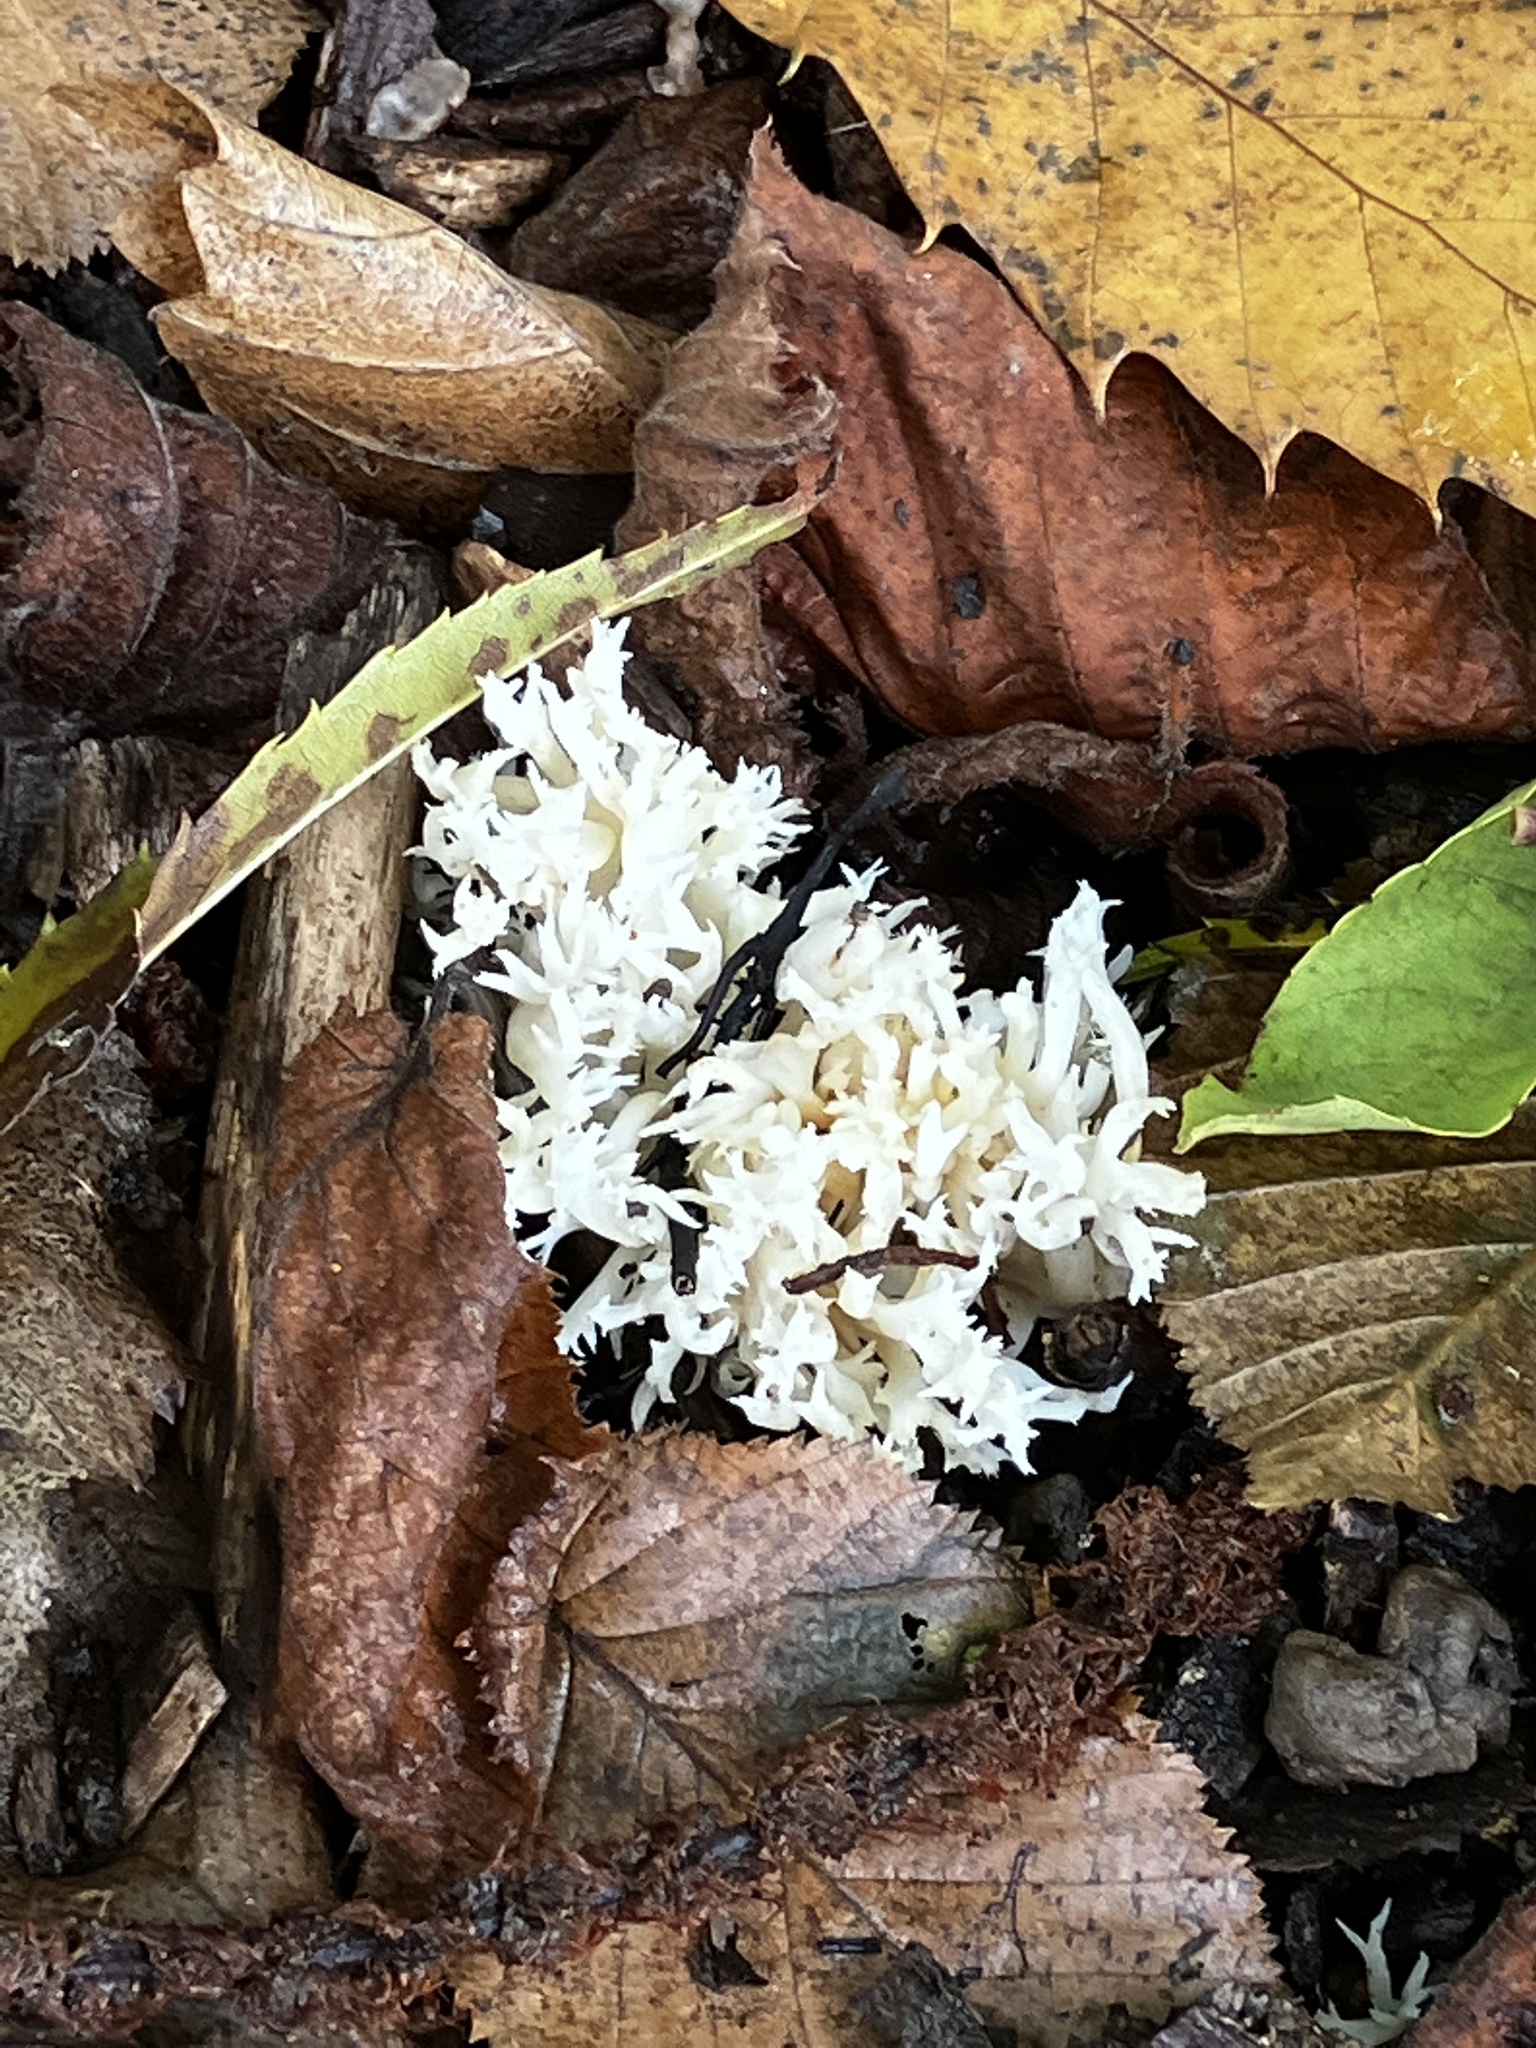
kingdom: Fungi
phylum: Basidiomycota
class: Agaricomycetes
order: Cantharellales
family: Hydnaceae
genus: Clavulina
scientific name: Clavulina coralloides
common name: Crested coral
